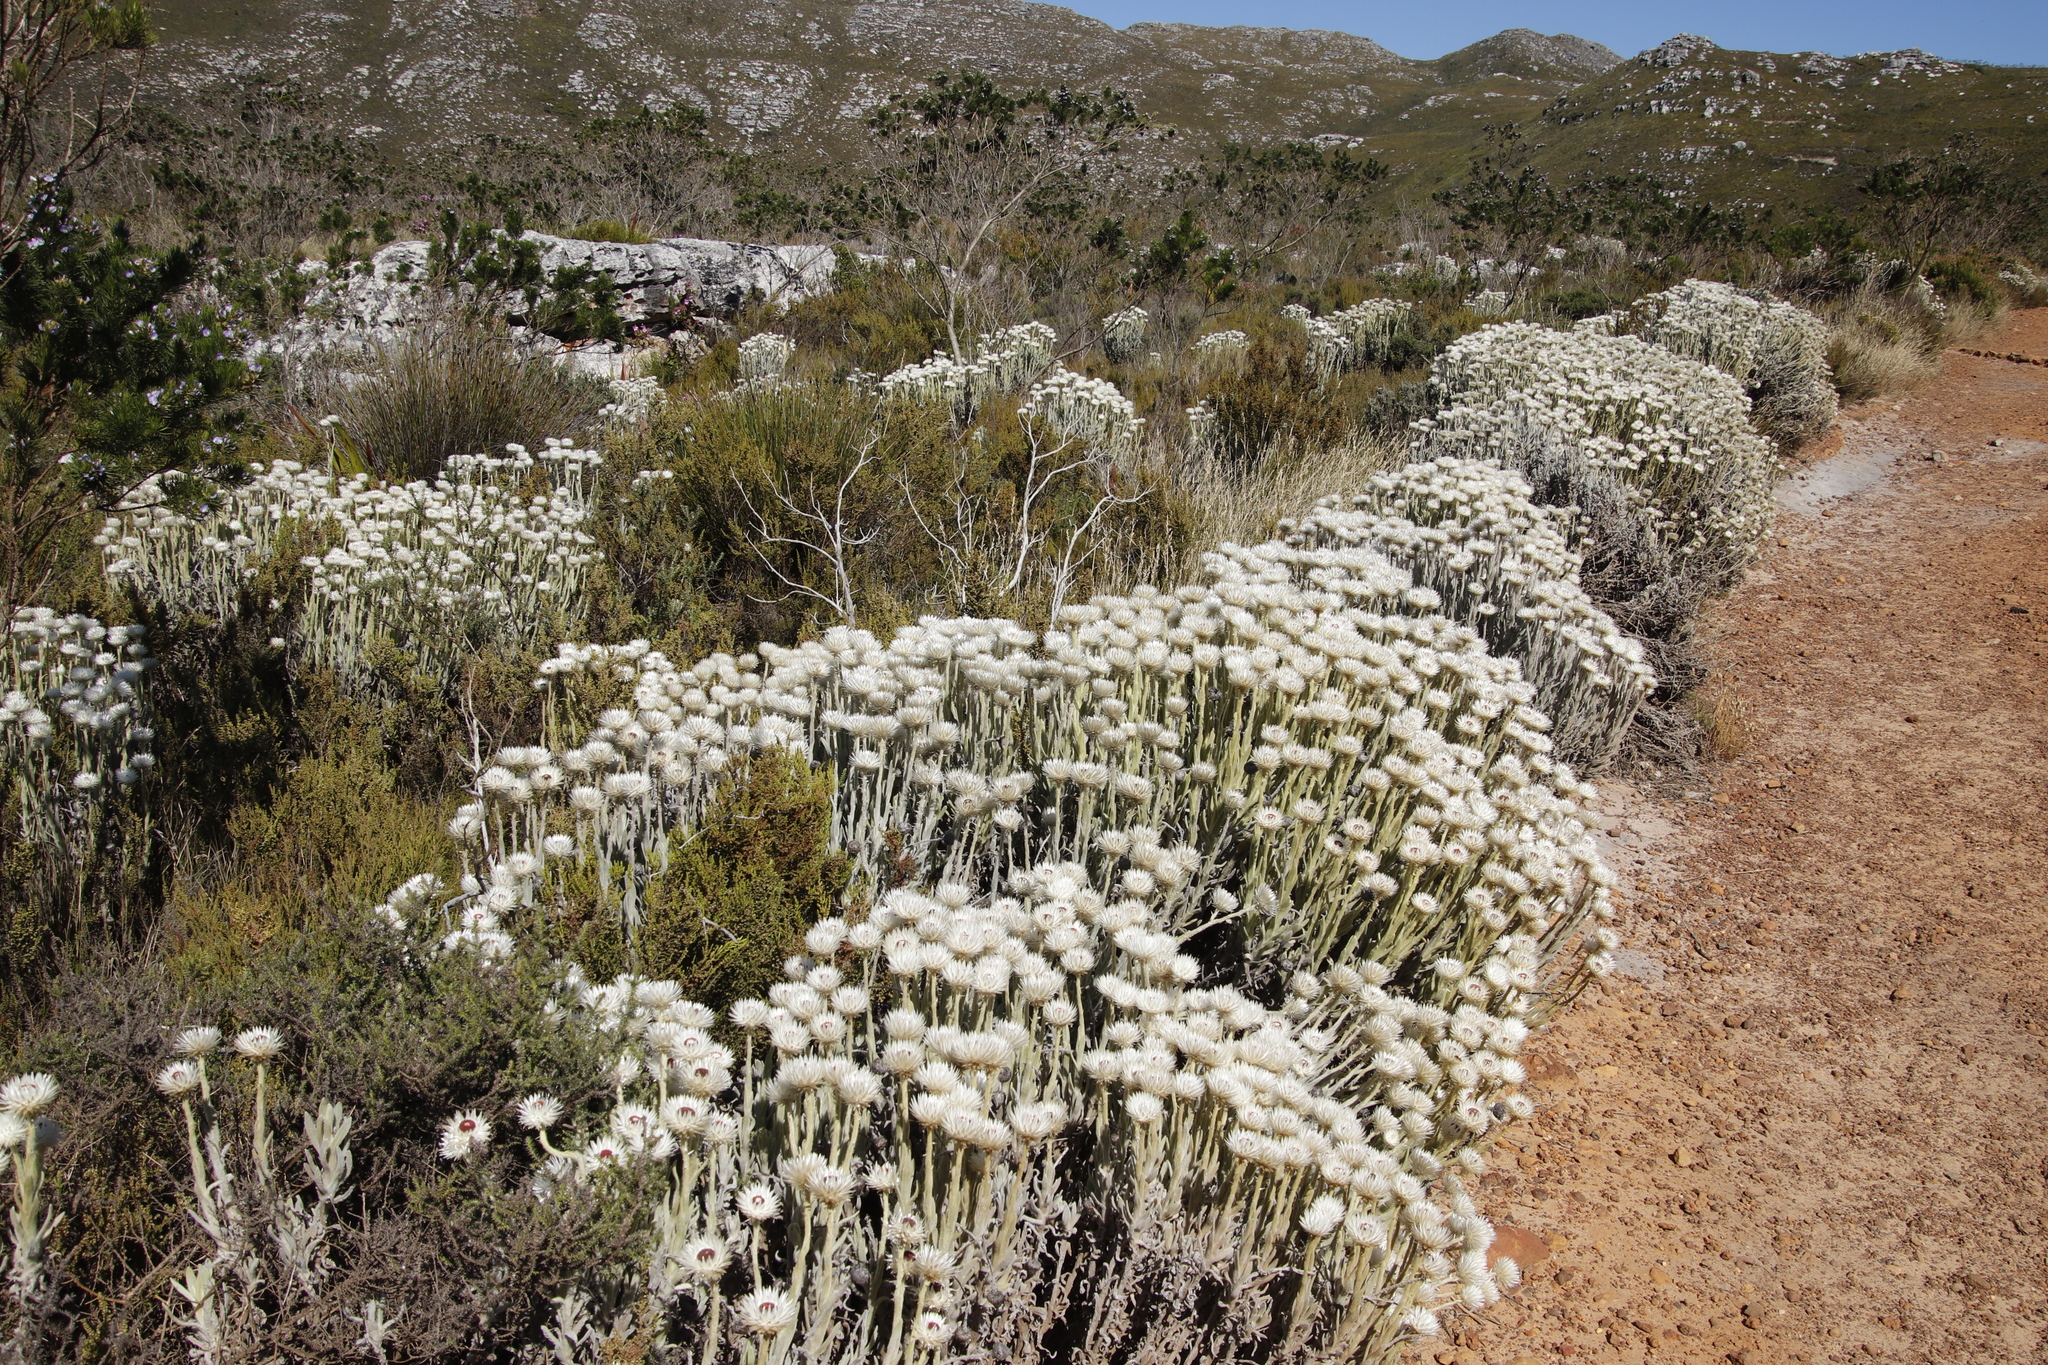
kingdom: Plantae
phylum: Tracheophyta
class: Magnoliopsida
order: Asterales
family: Asteraceae
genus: Syncarpha
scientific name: Syncarpha vestita
